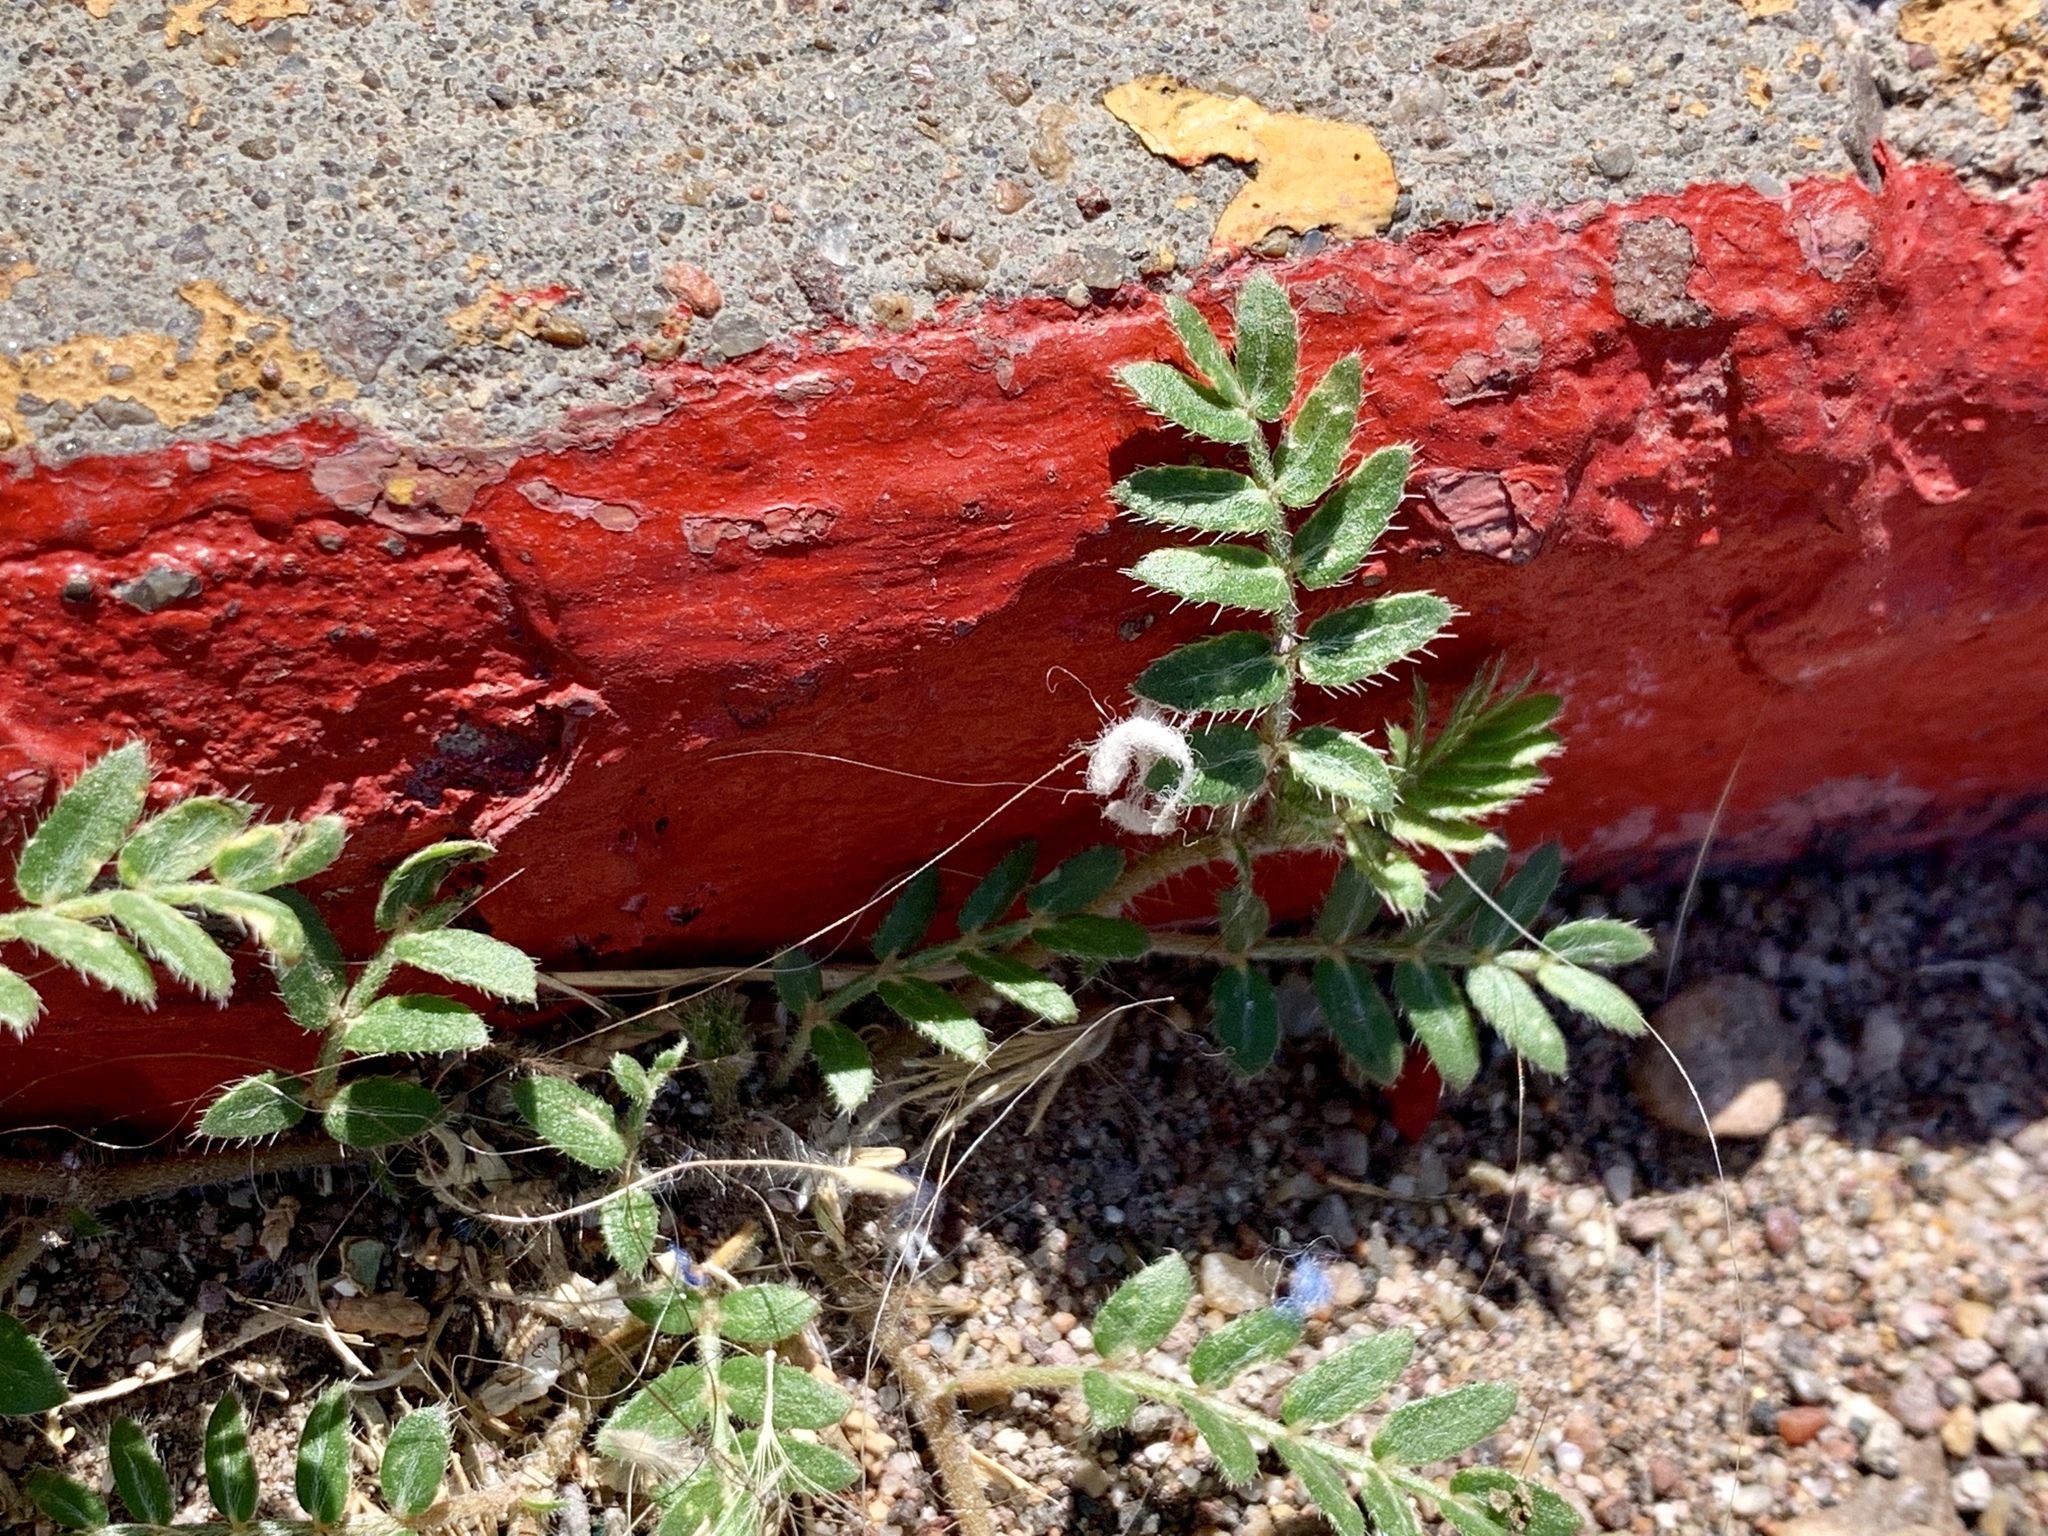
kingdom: Plantae
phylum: Tracheophyta
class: Magnoliopsida
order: Zygophyllales
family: Zygophyllaceae
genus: Tribulus
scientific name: Tribulus terrestris
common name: Puncturevine
